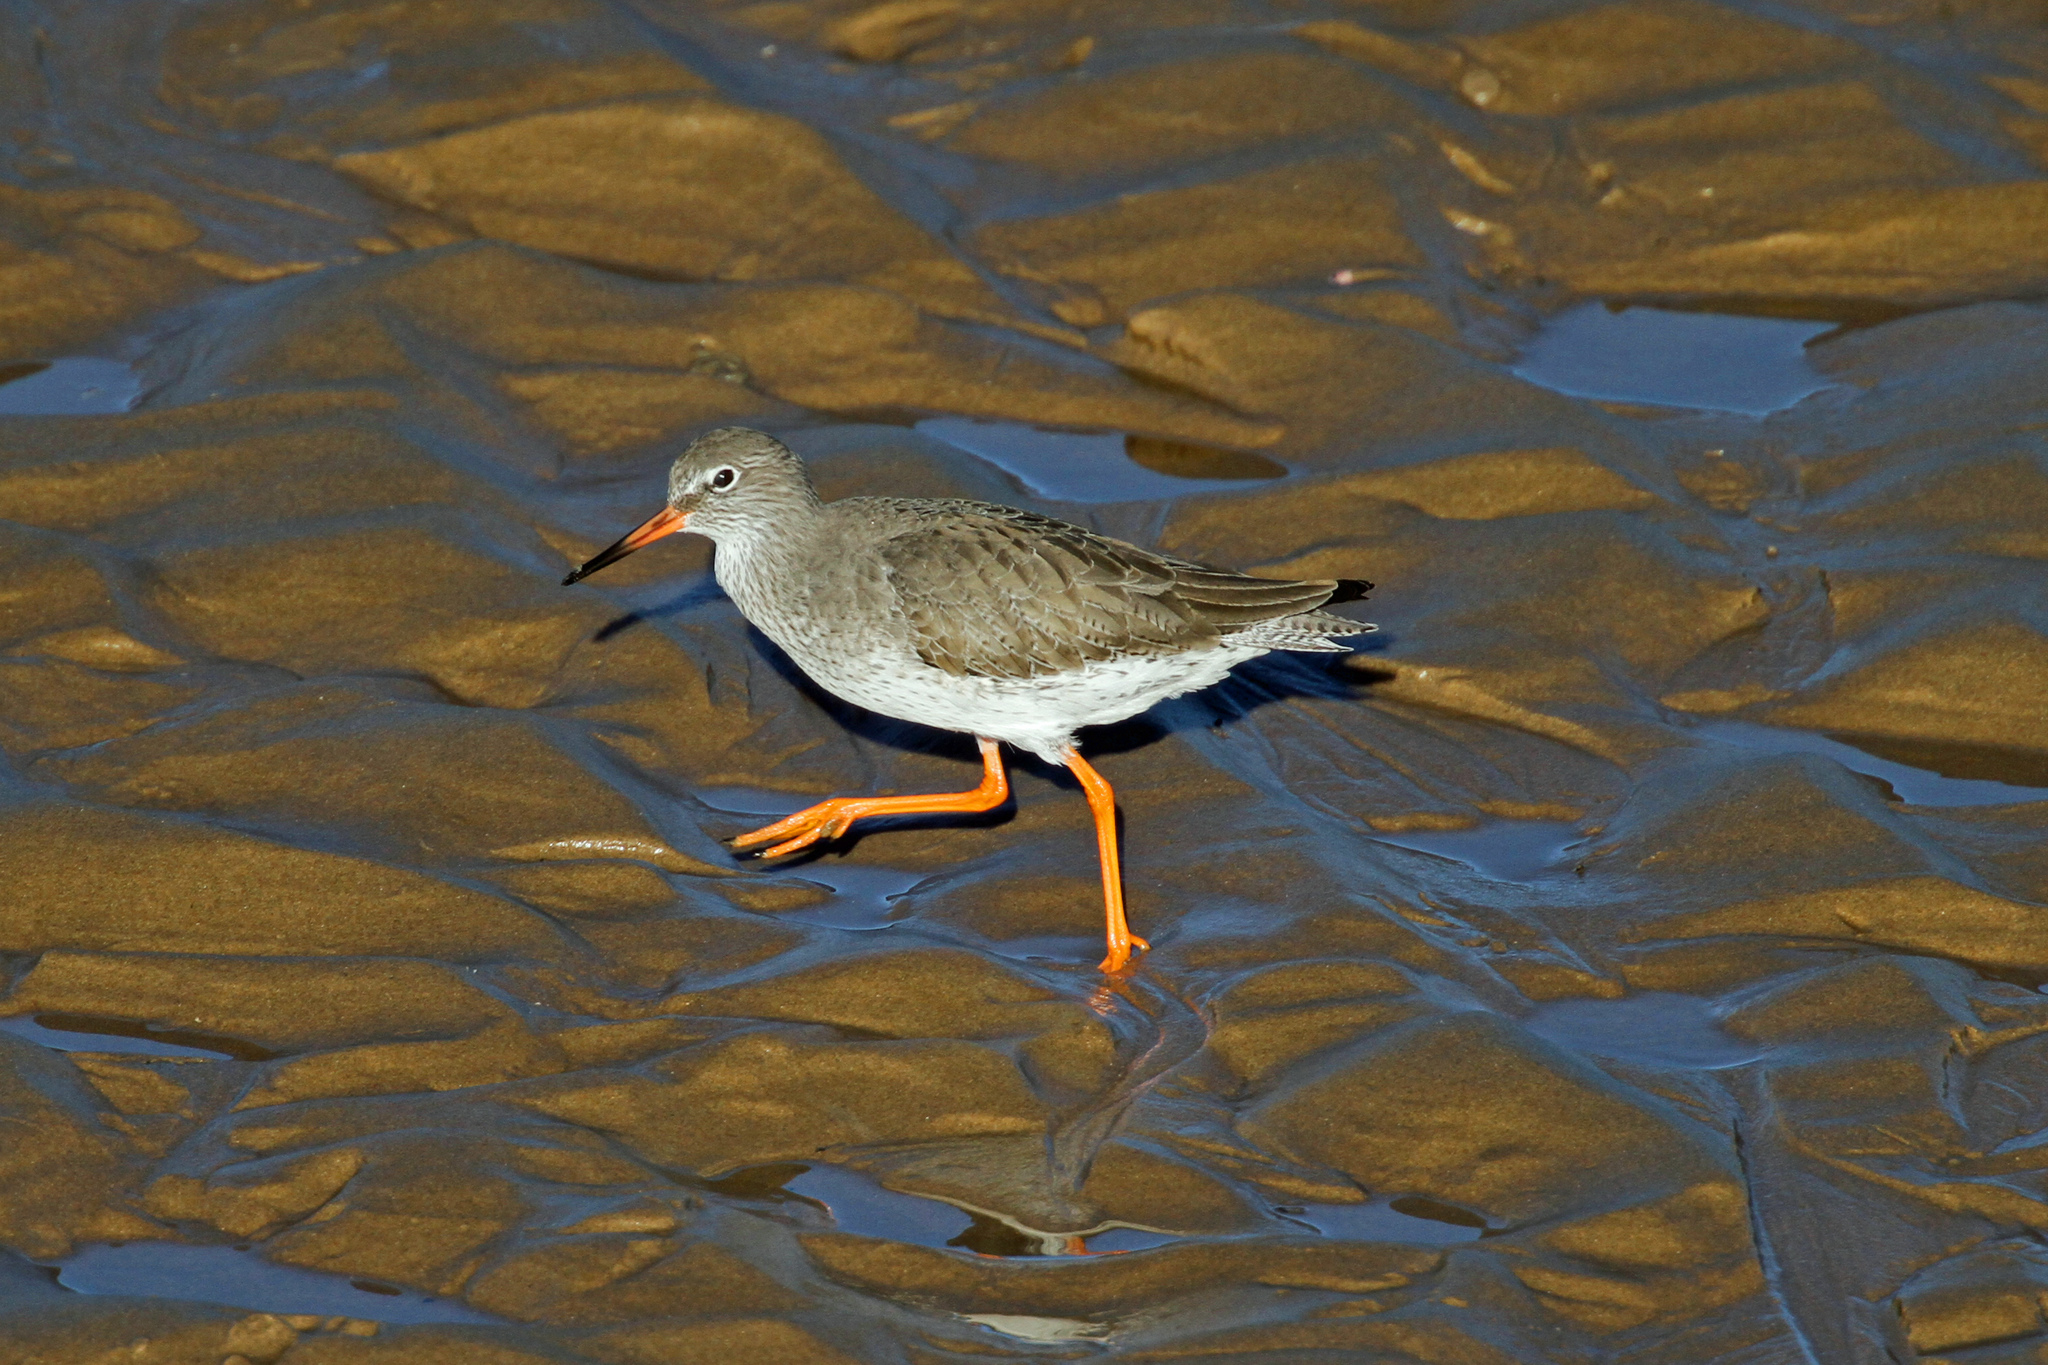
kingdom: Animalia
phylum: Chordata
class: Aves
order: Charadriiformes
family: Scolopacidae
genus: Tringa
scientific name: Tringa totanus
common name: Common redshank
